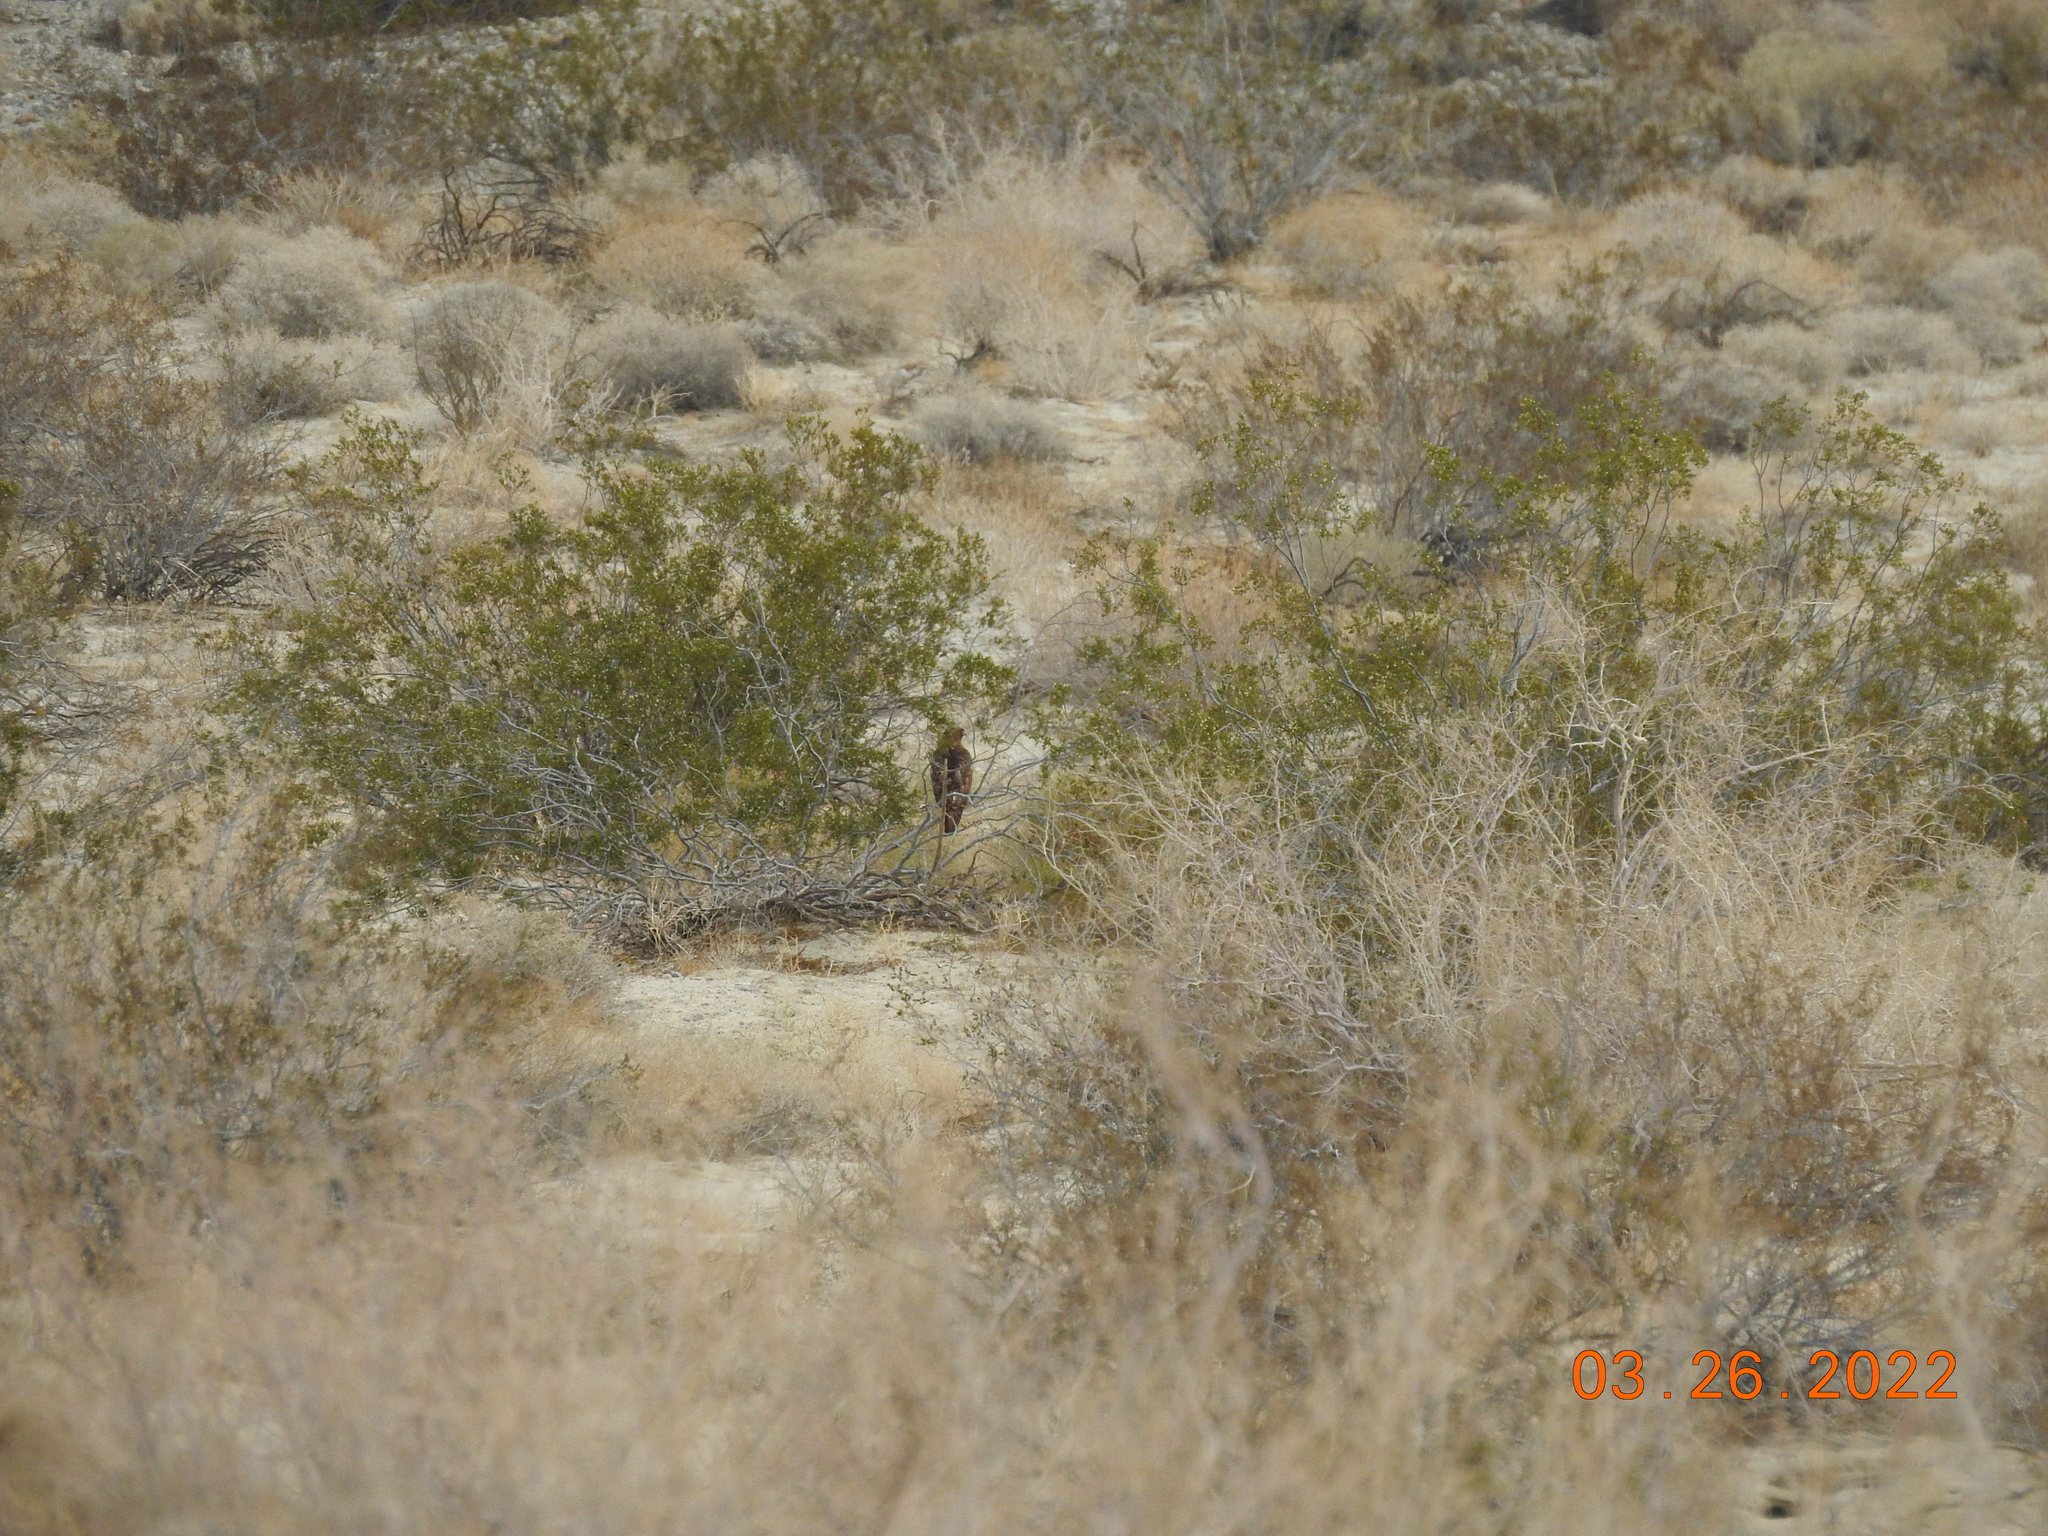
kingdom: Animalia
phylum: Chordata
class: Aves
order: Accipitriformes
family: Accipitridae
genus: Buteo
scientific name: Buteo jamaicensis
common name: Red-tailed hawk
